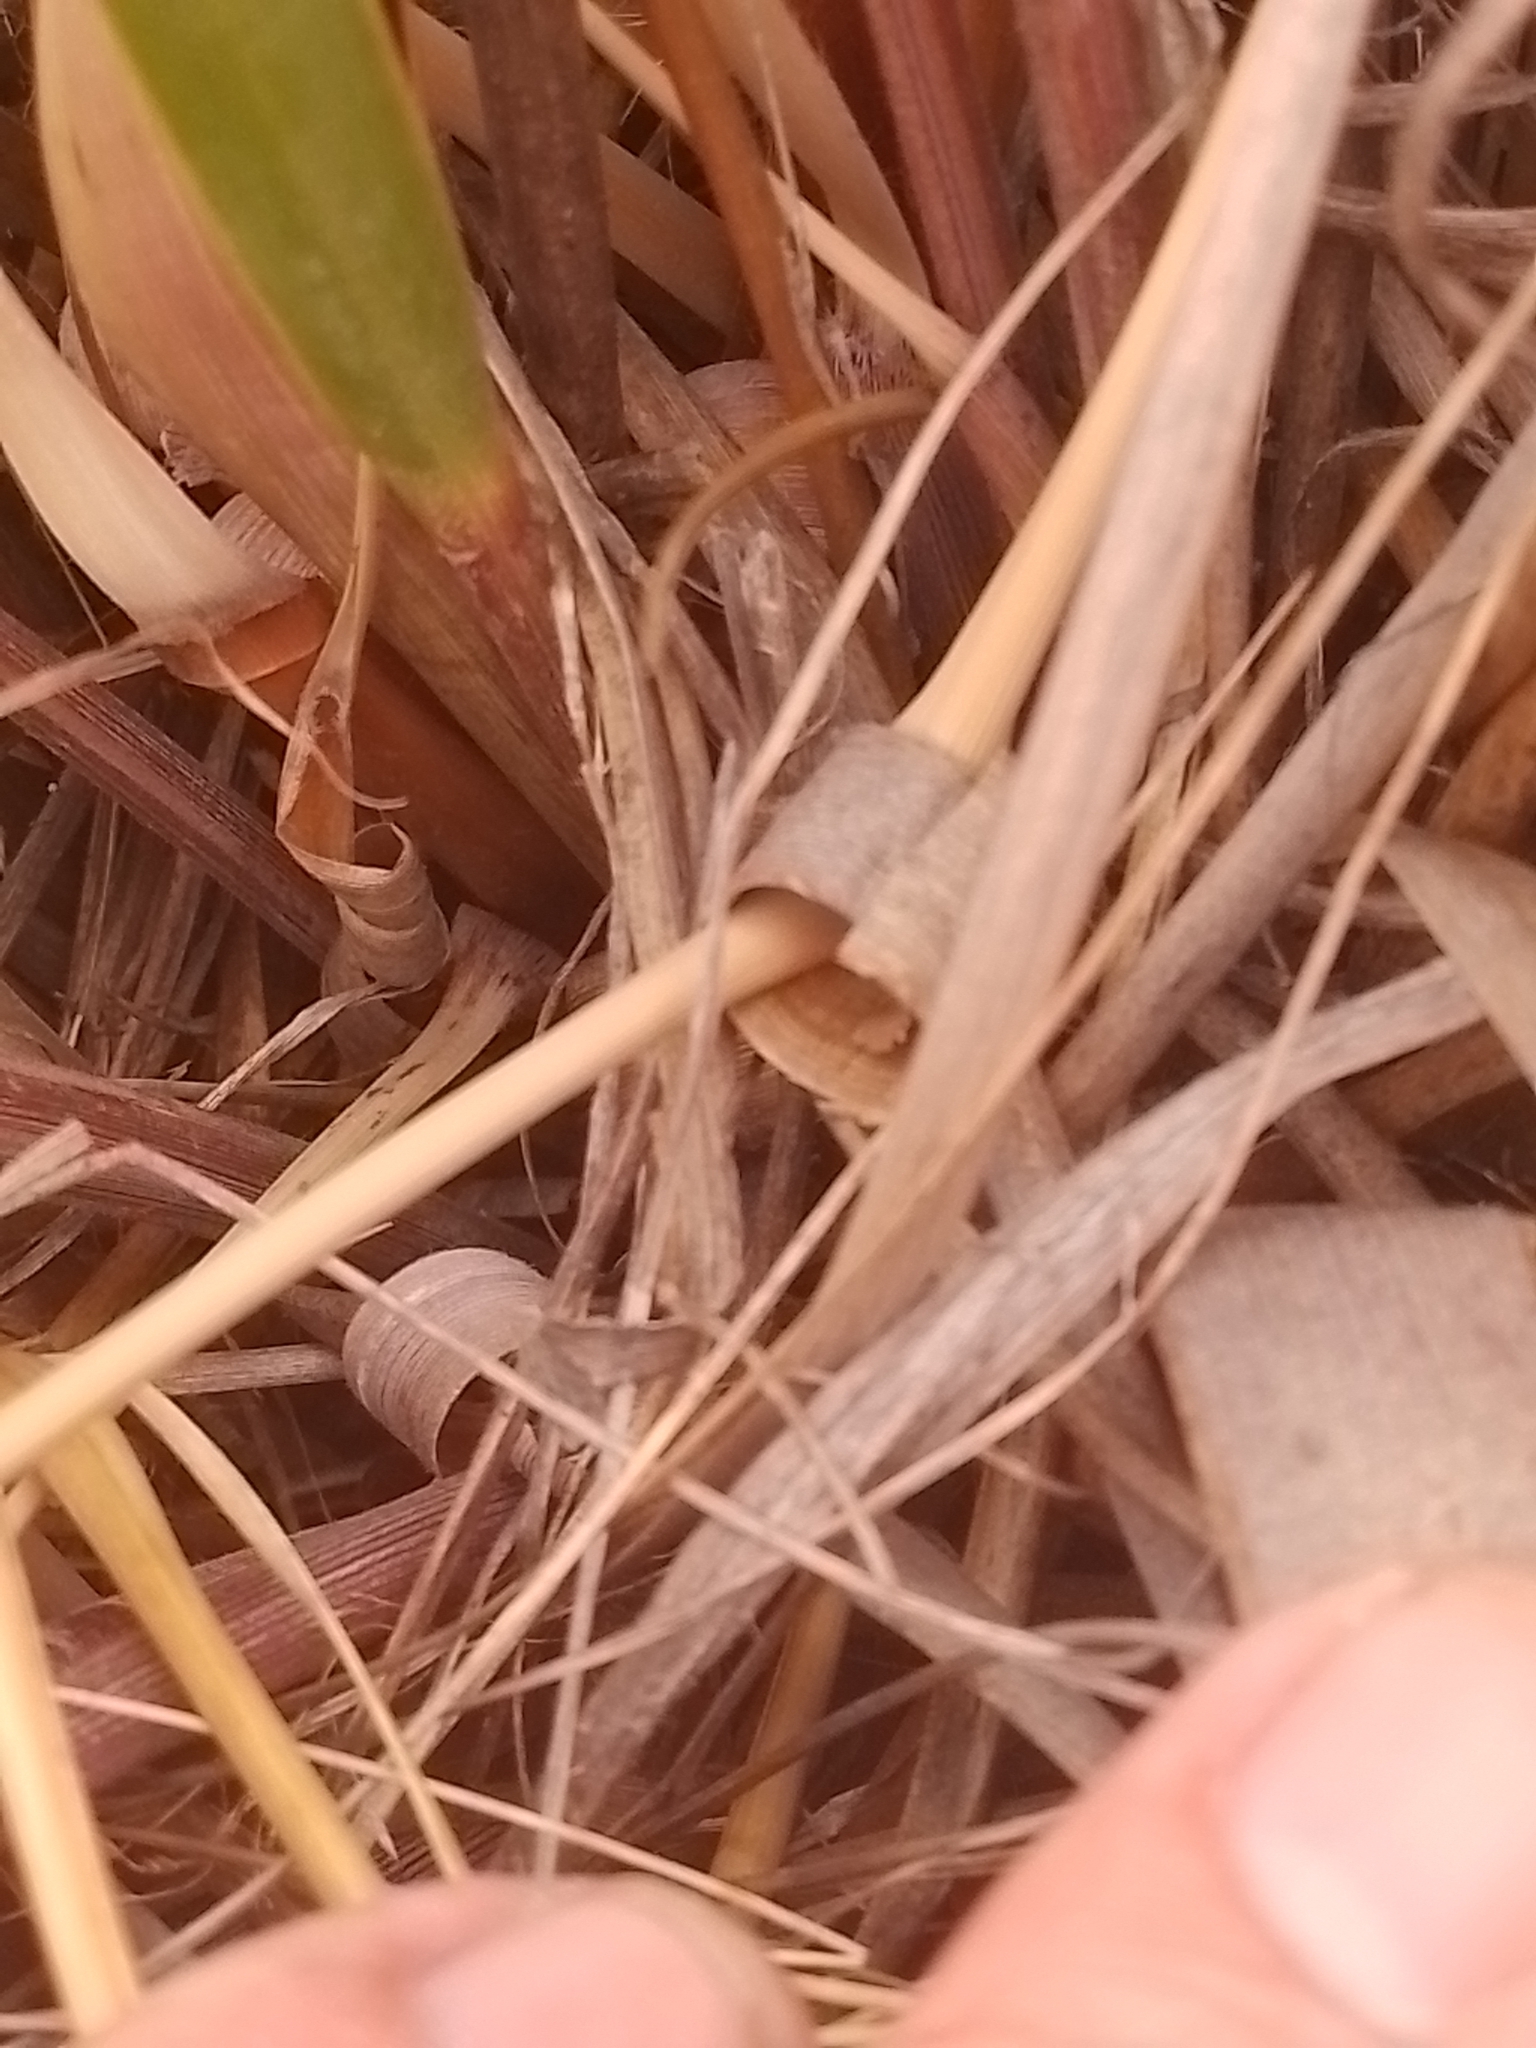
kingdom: Plantae
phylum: Tracheophyta
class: Liliopsida
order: Poales
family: Poaceae
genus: Chionochloa
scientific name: Chionochloa flavescens
